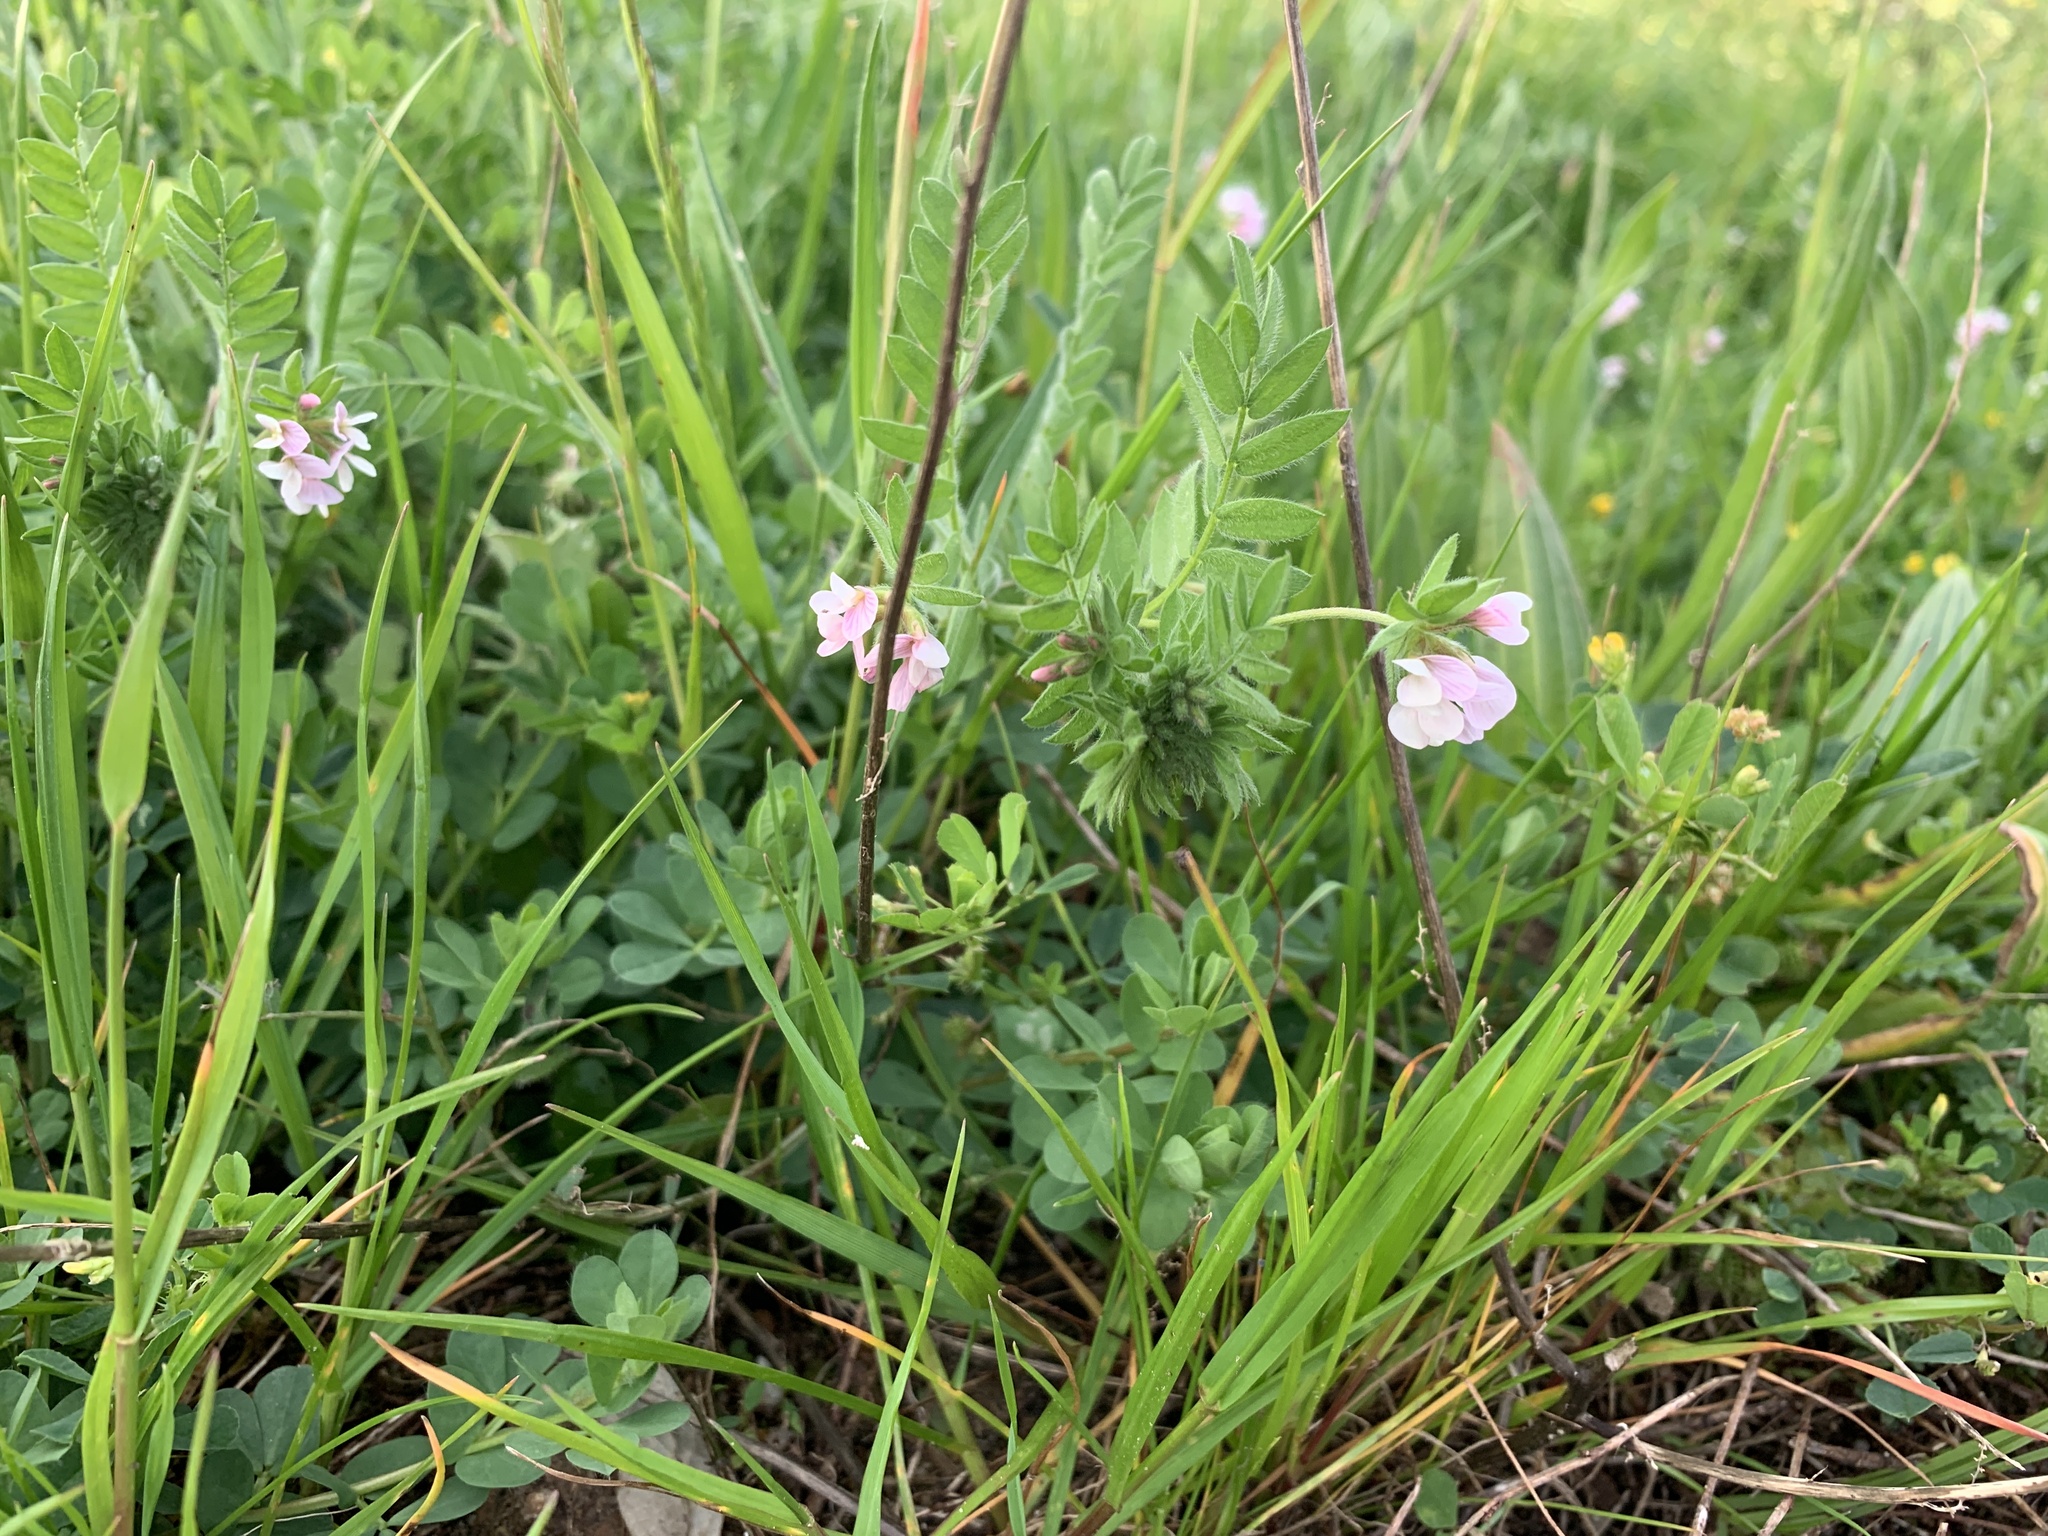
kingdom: Plantae
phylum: Tracheophyta
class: Magnoliopsida
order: Fabales
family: Fabaceae
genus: Ornithopus
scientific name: Ornithopus sativus
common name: Serradella
